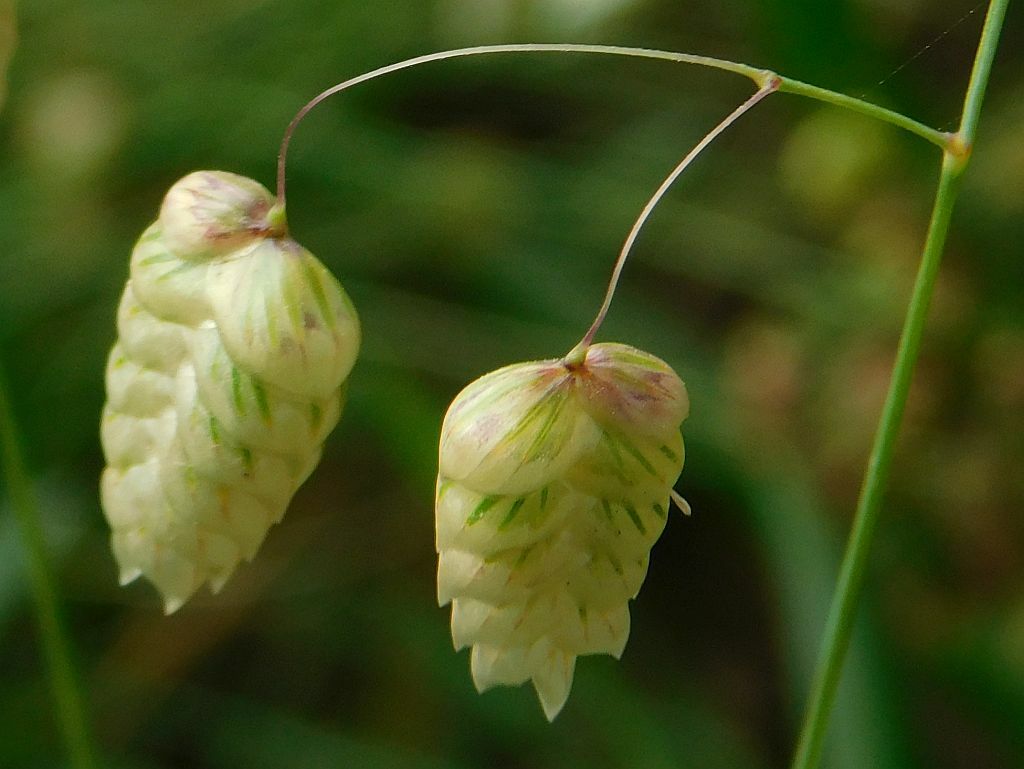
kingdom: Plantae
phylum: Tracheophyta
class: Liliopsida
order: Poales
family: Poaceae
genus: Briza
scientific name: Briza maxima
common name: Big quakinggrass
